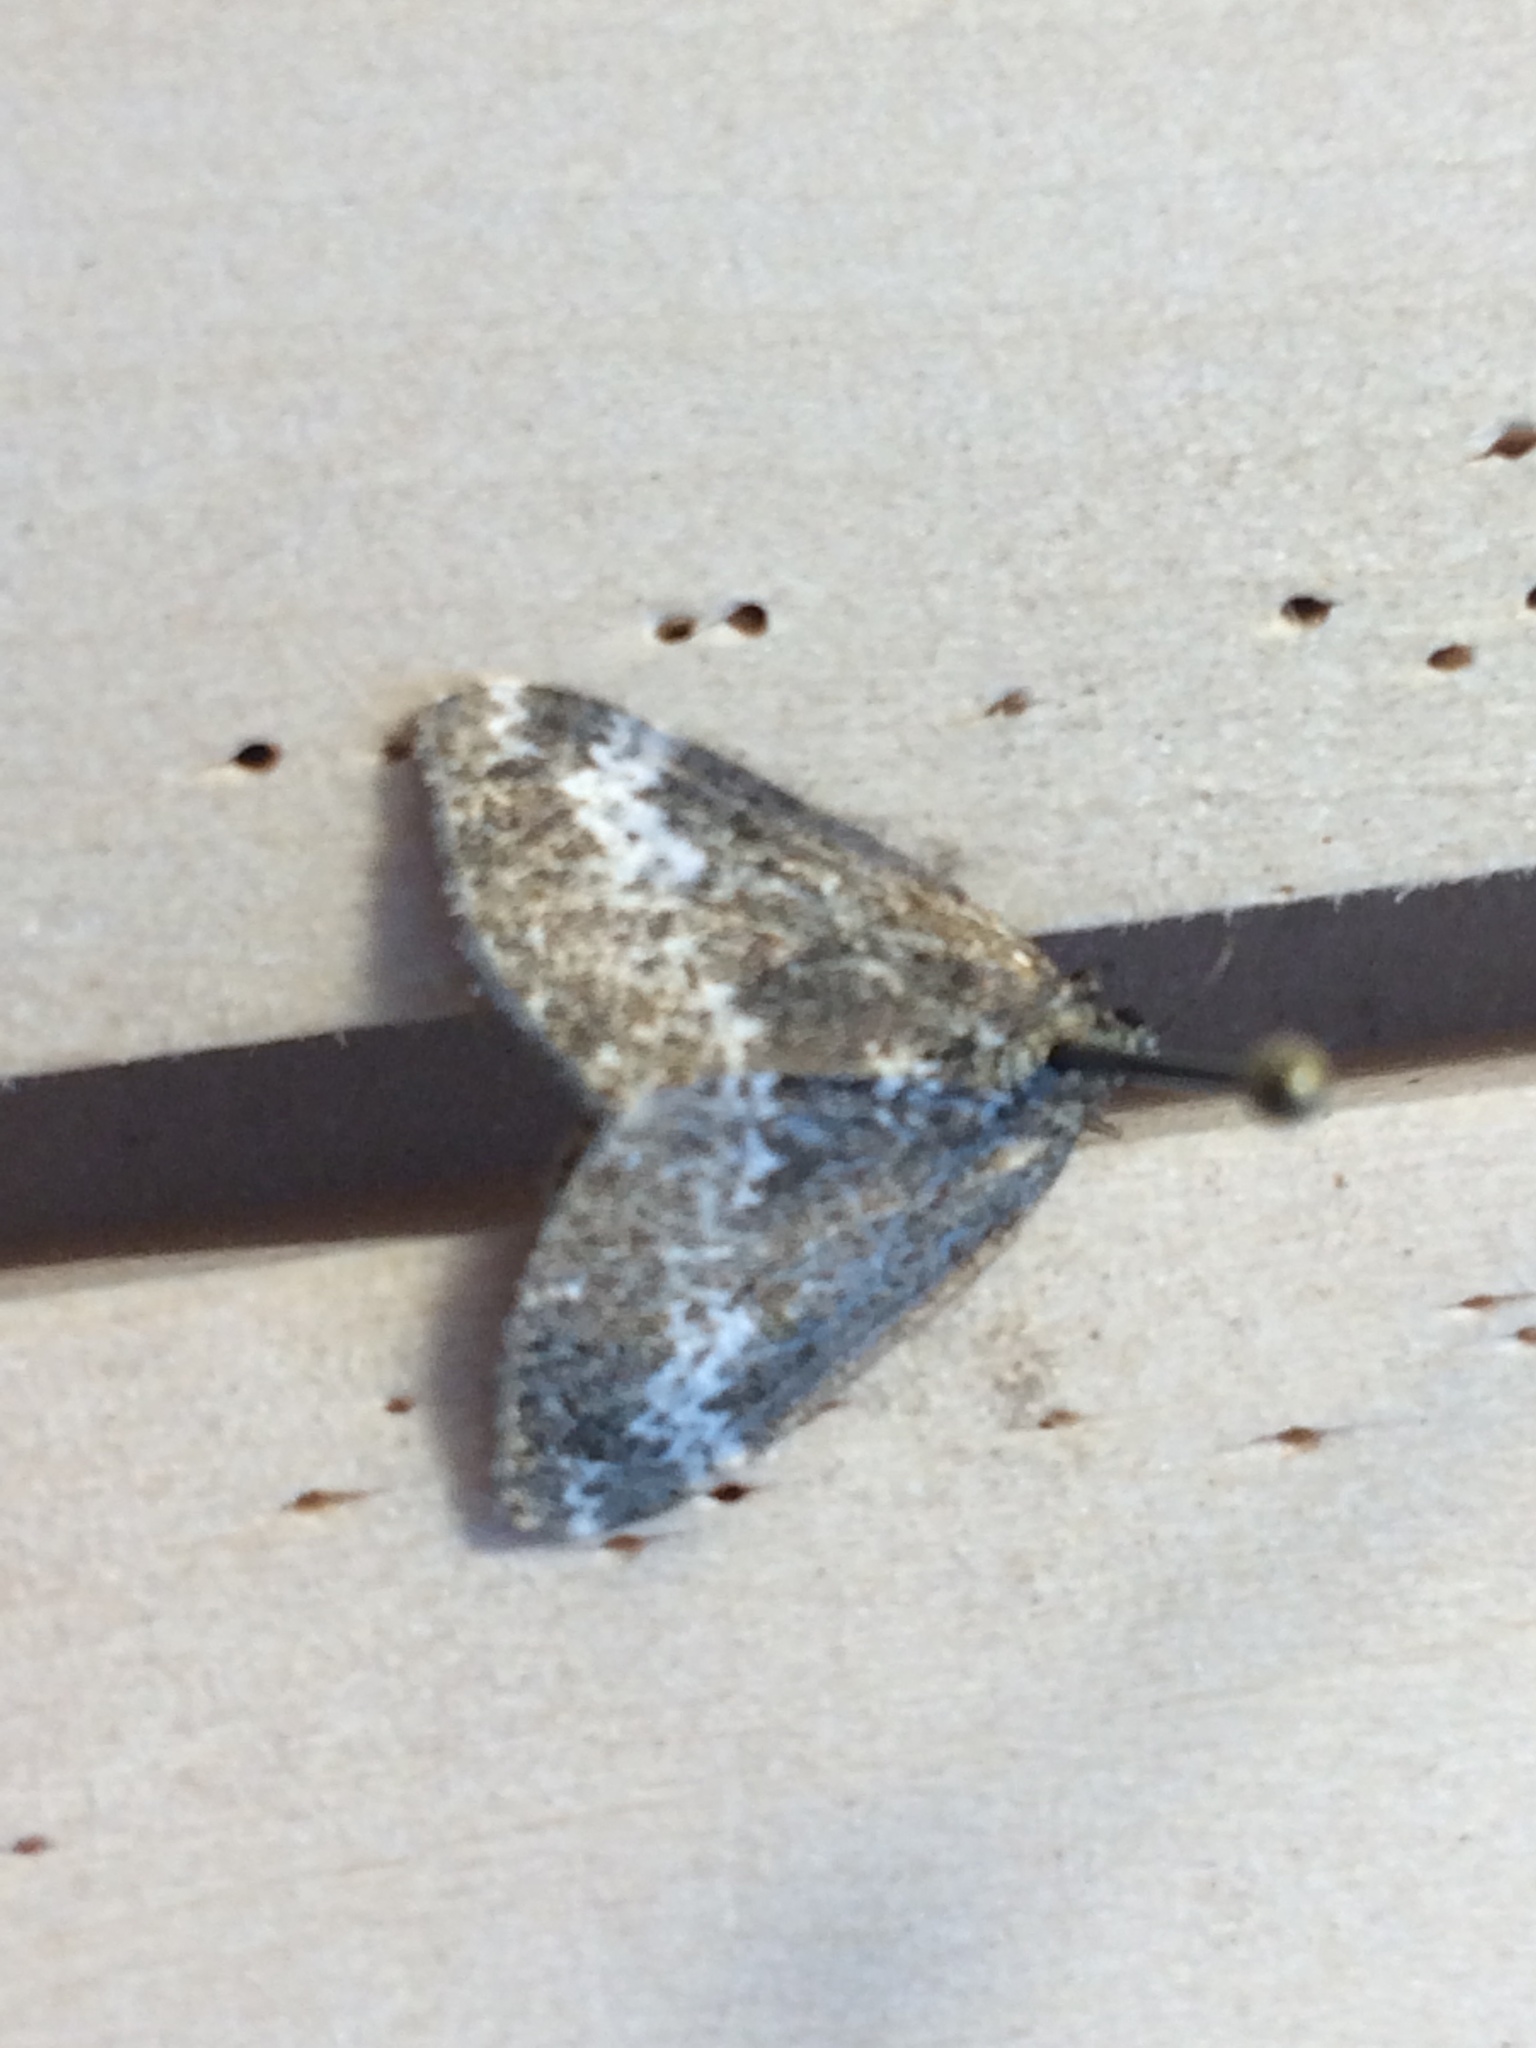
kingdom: Animalia
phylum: Arthropoda
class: Insecta
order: Lepidoptera
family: Geometridae
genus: Perizoma
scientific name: Perizoma alchemillata
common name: Small rivulet
